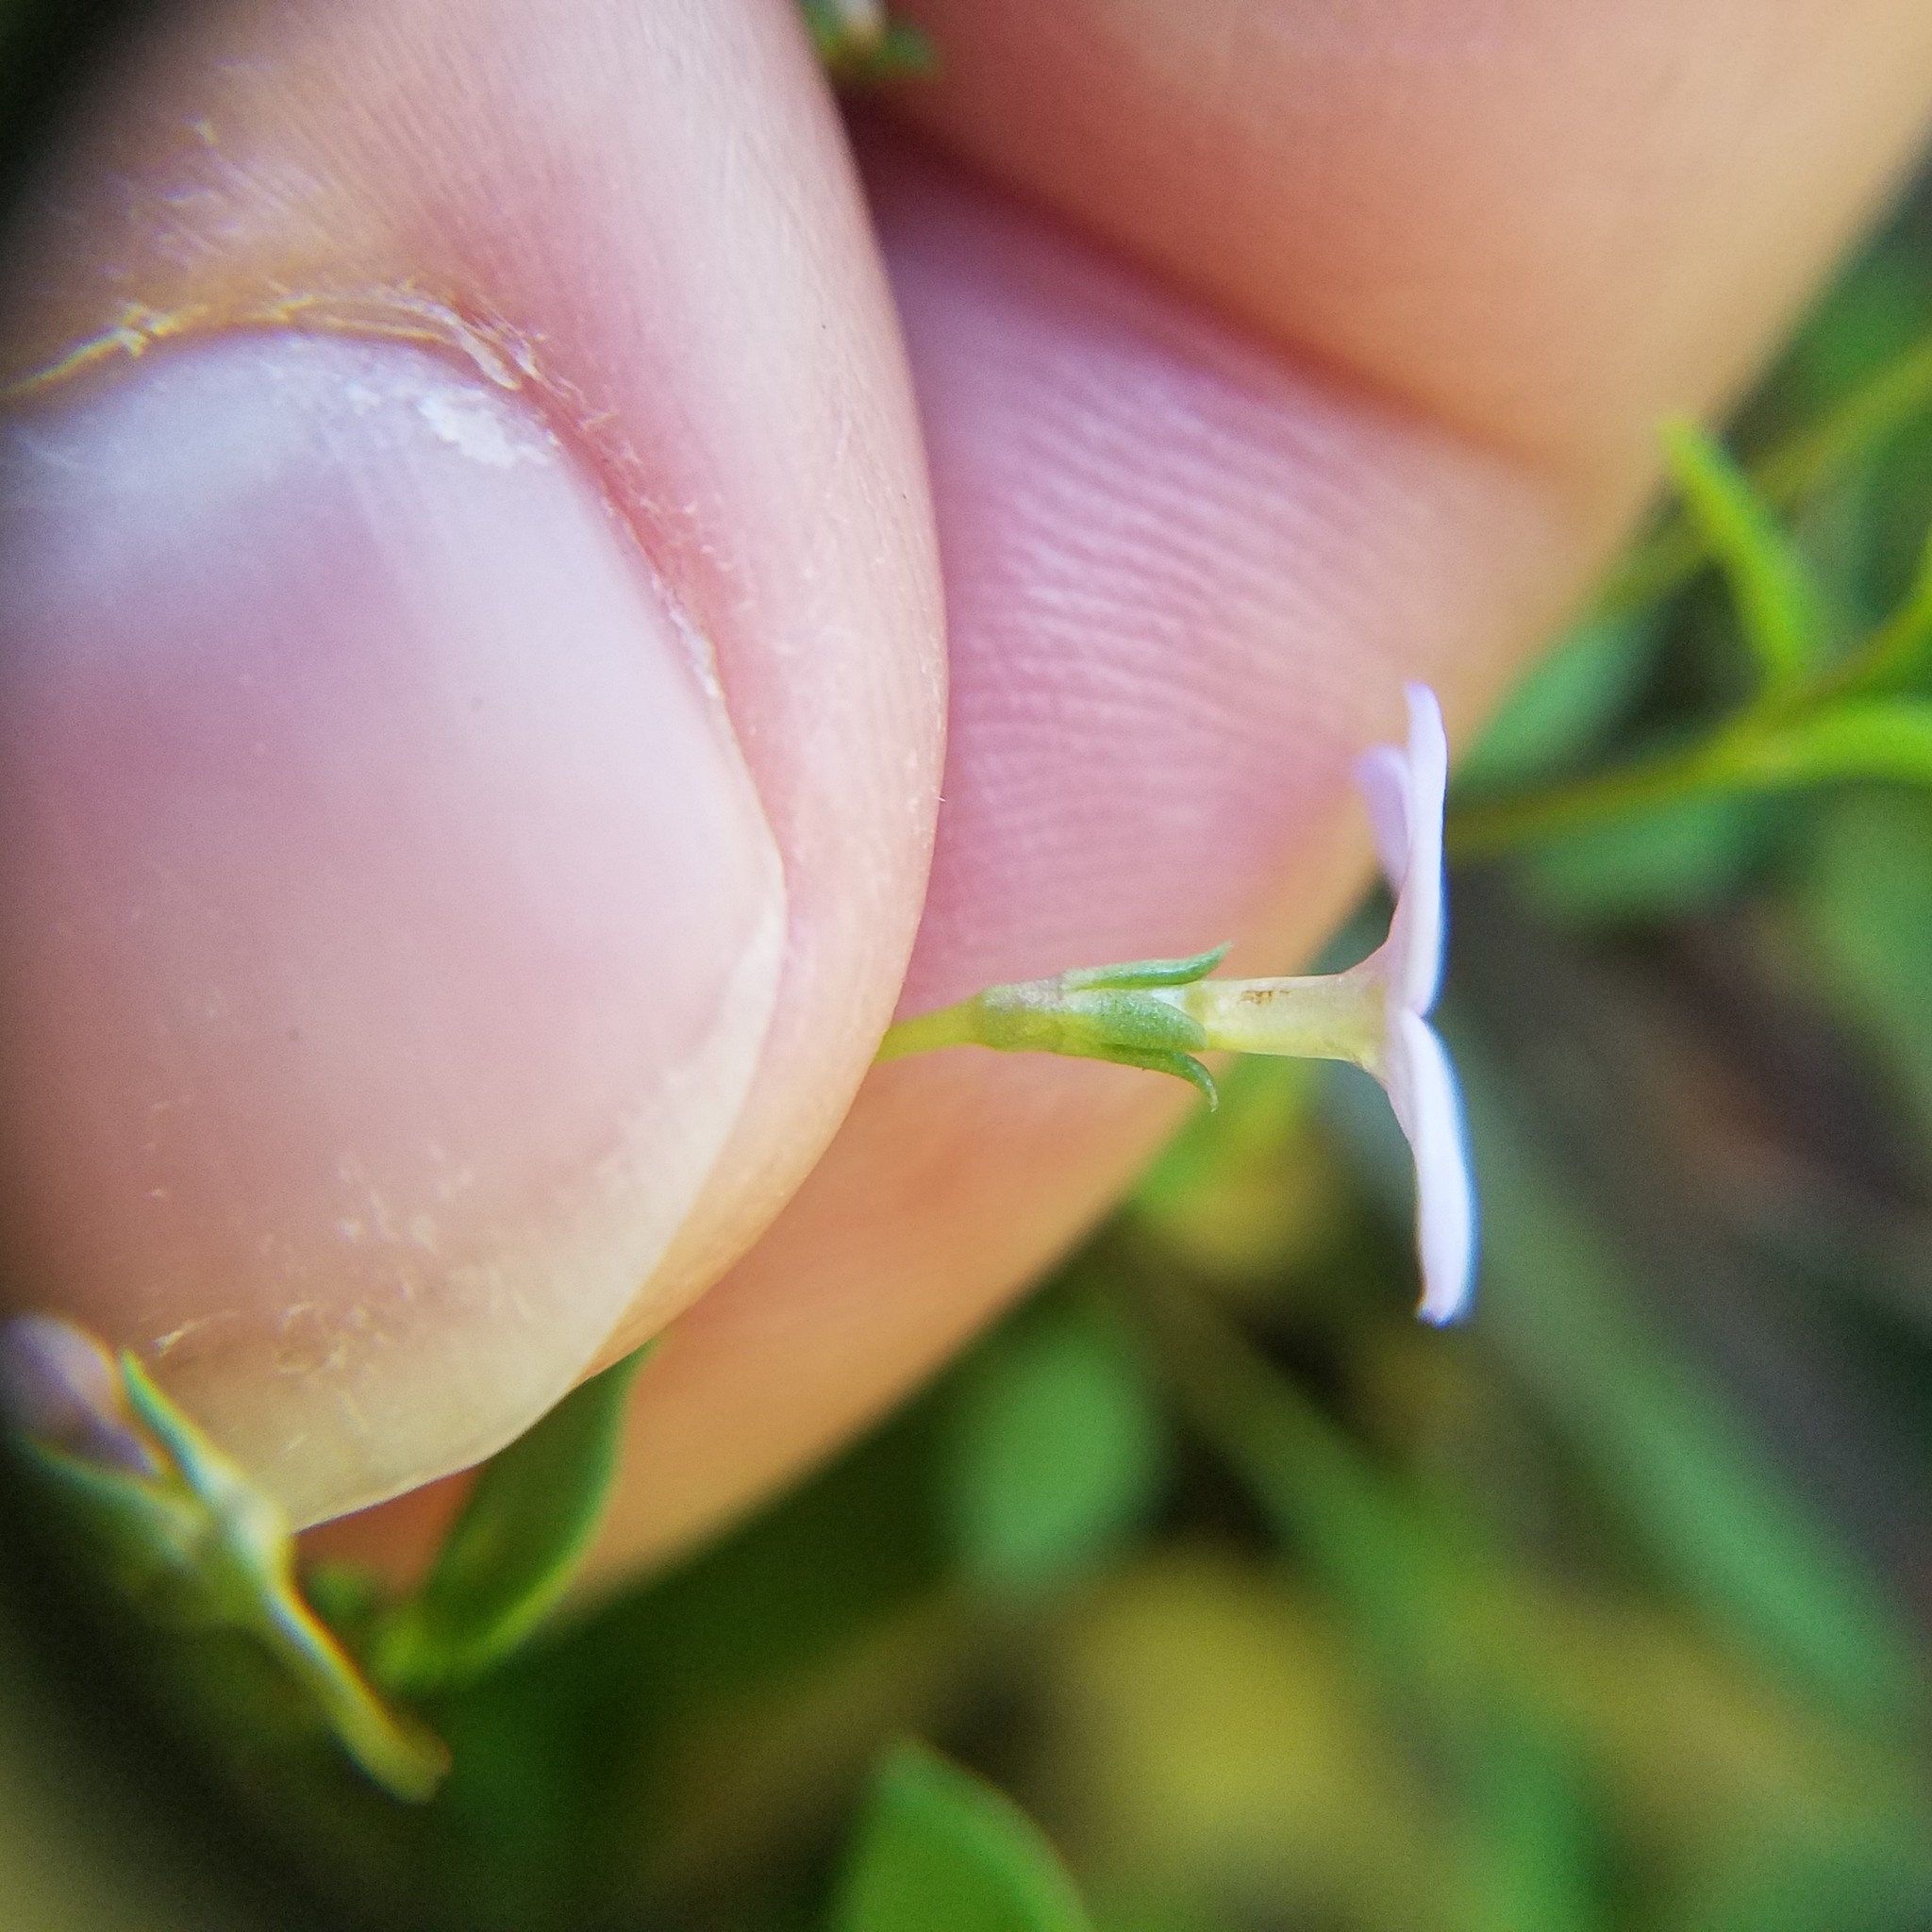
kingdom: Plantae
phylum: Tracheophyta
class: Magnoliopsida
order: Gentianales
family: Rubiaceae
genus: Houstonia
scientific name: Houstonia pusilla
